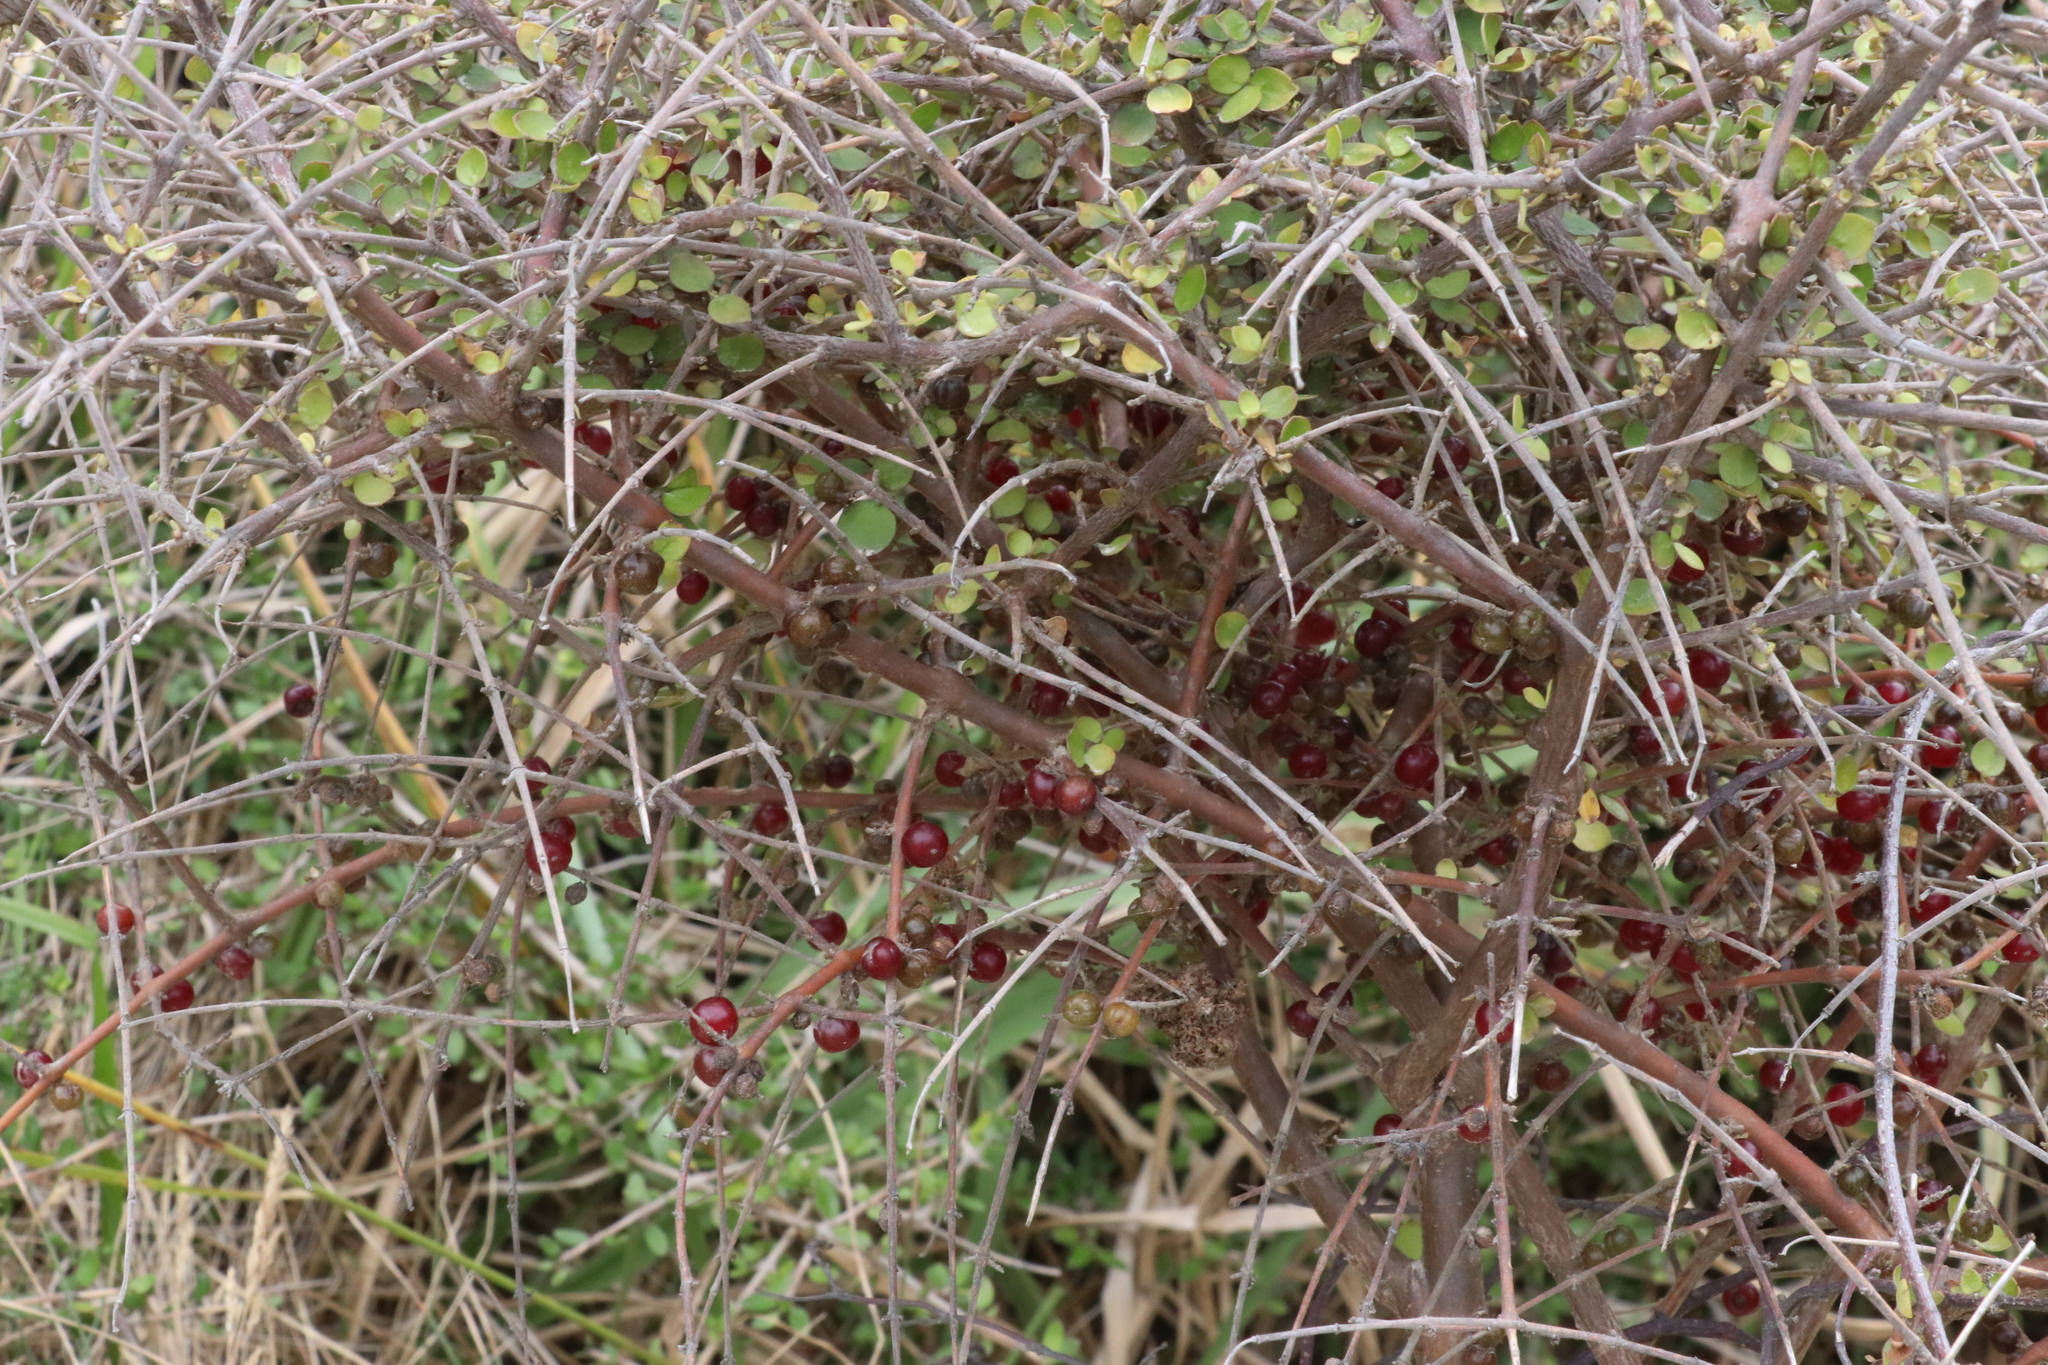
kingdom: Plantae
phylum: Tracheophyta
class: Magnoliopsida
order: Gentianales
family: Rubiaceae
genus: Coprosma
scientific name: Coprosma rhamnoides
